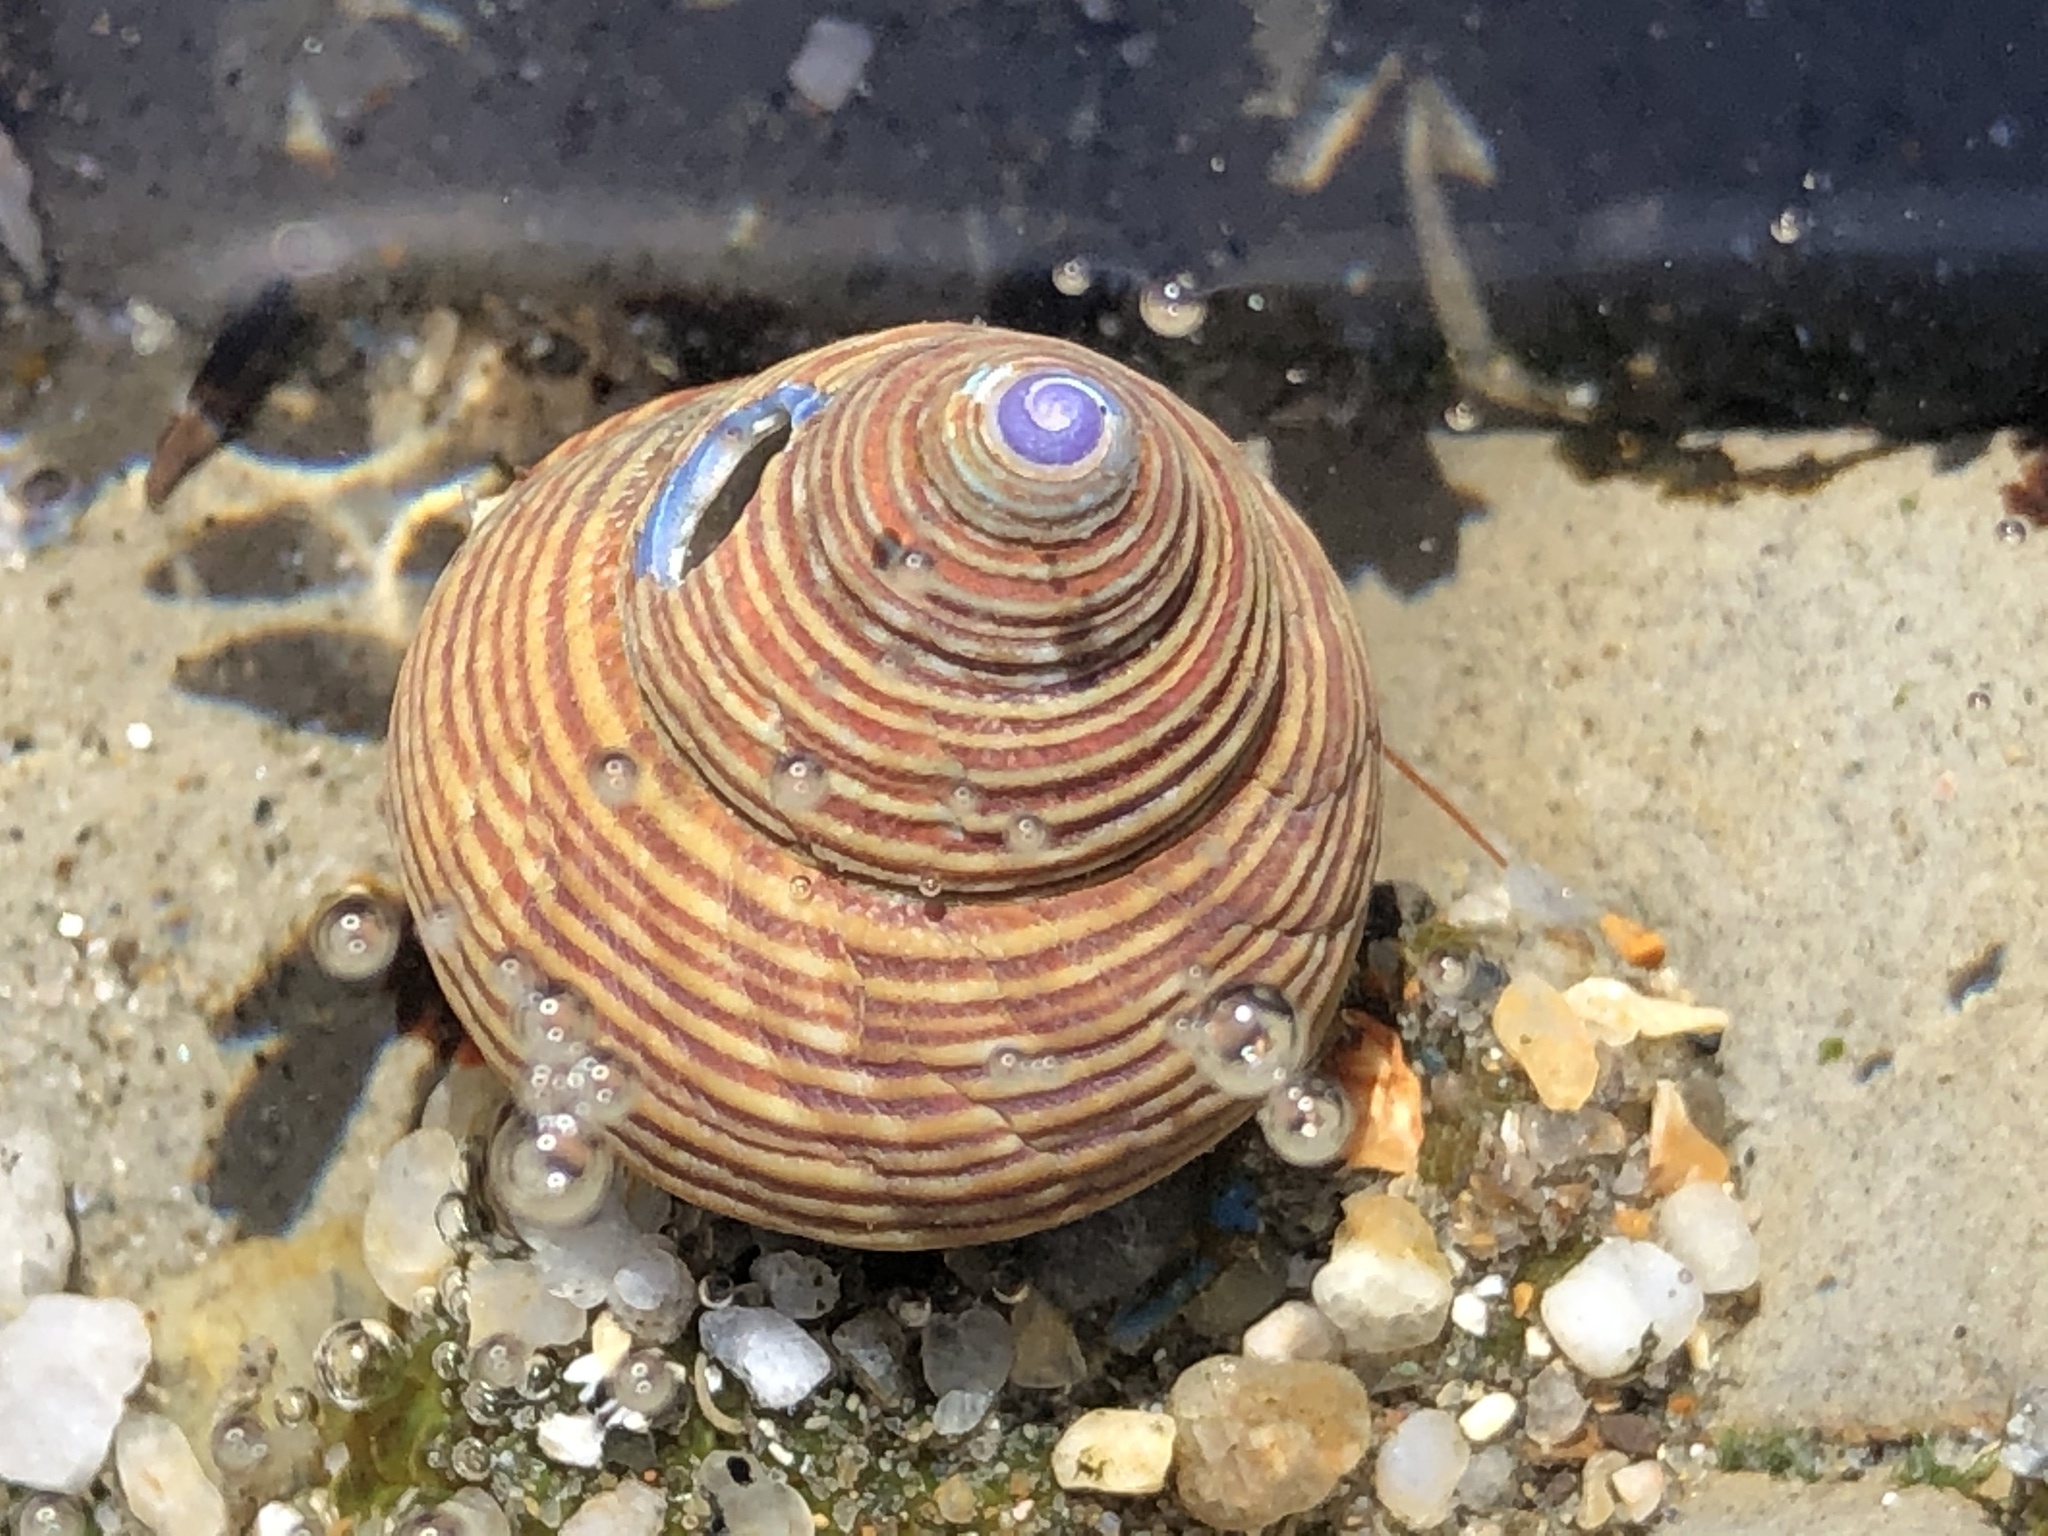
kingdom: Animalia
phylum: Mollusca
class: Gastropoda
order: Trochida
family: Calliostomatidae
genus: Calliostoma
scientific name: Calliostoma ligatum
